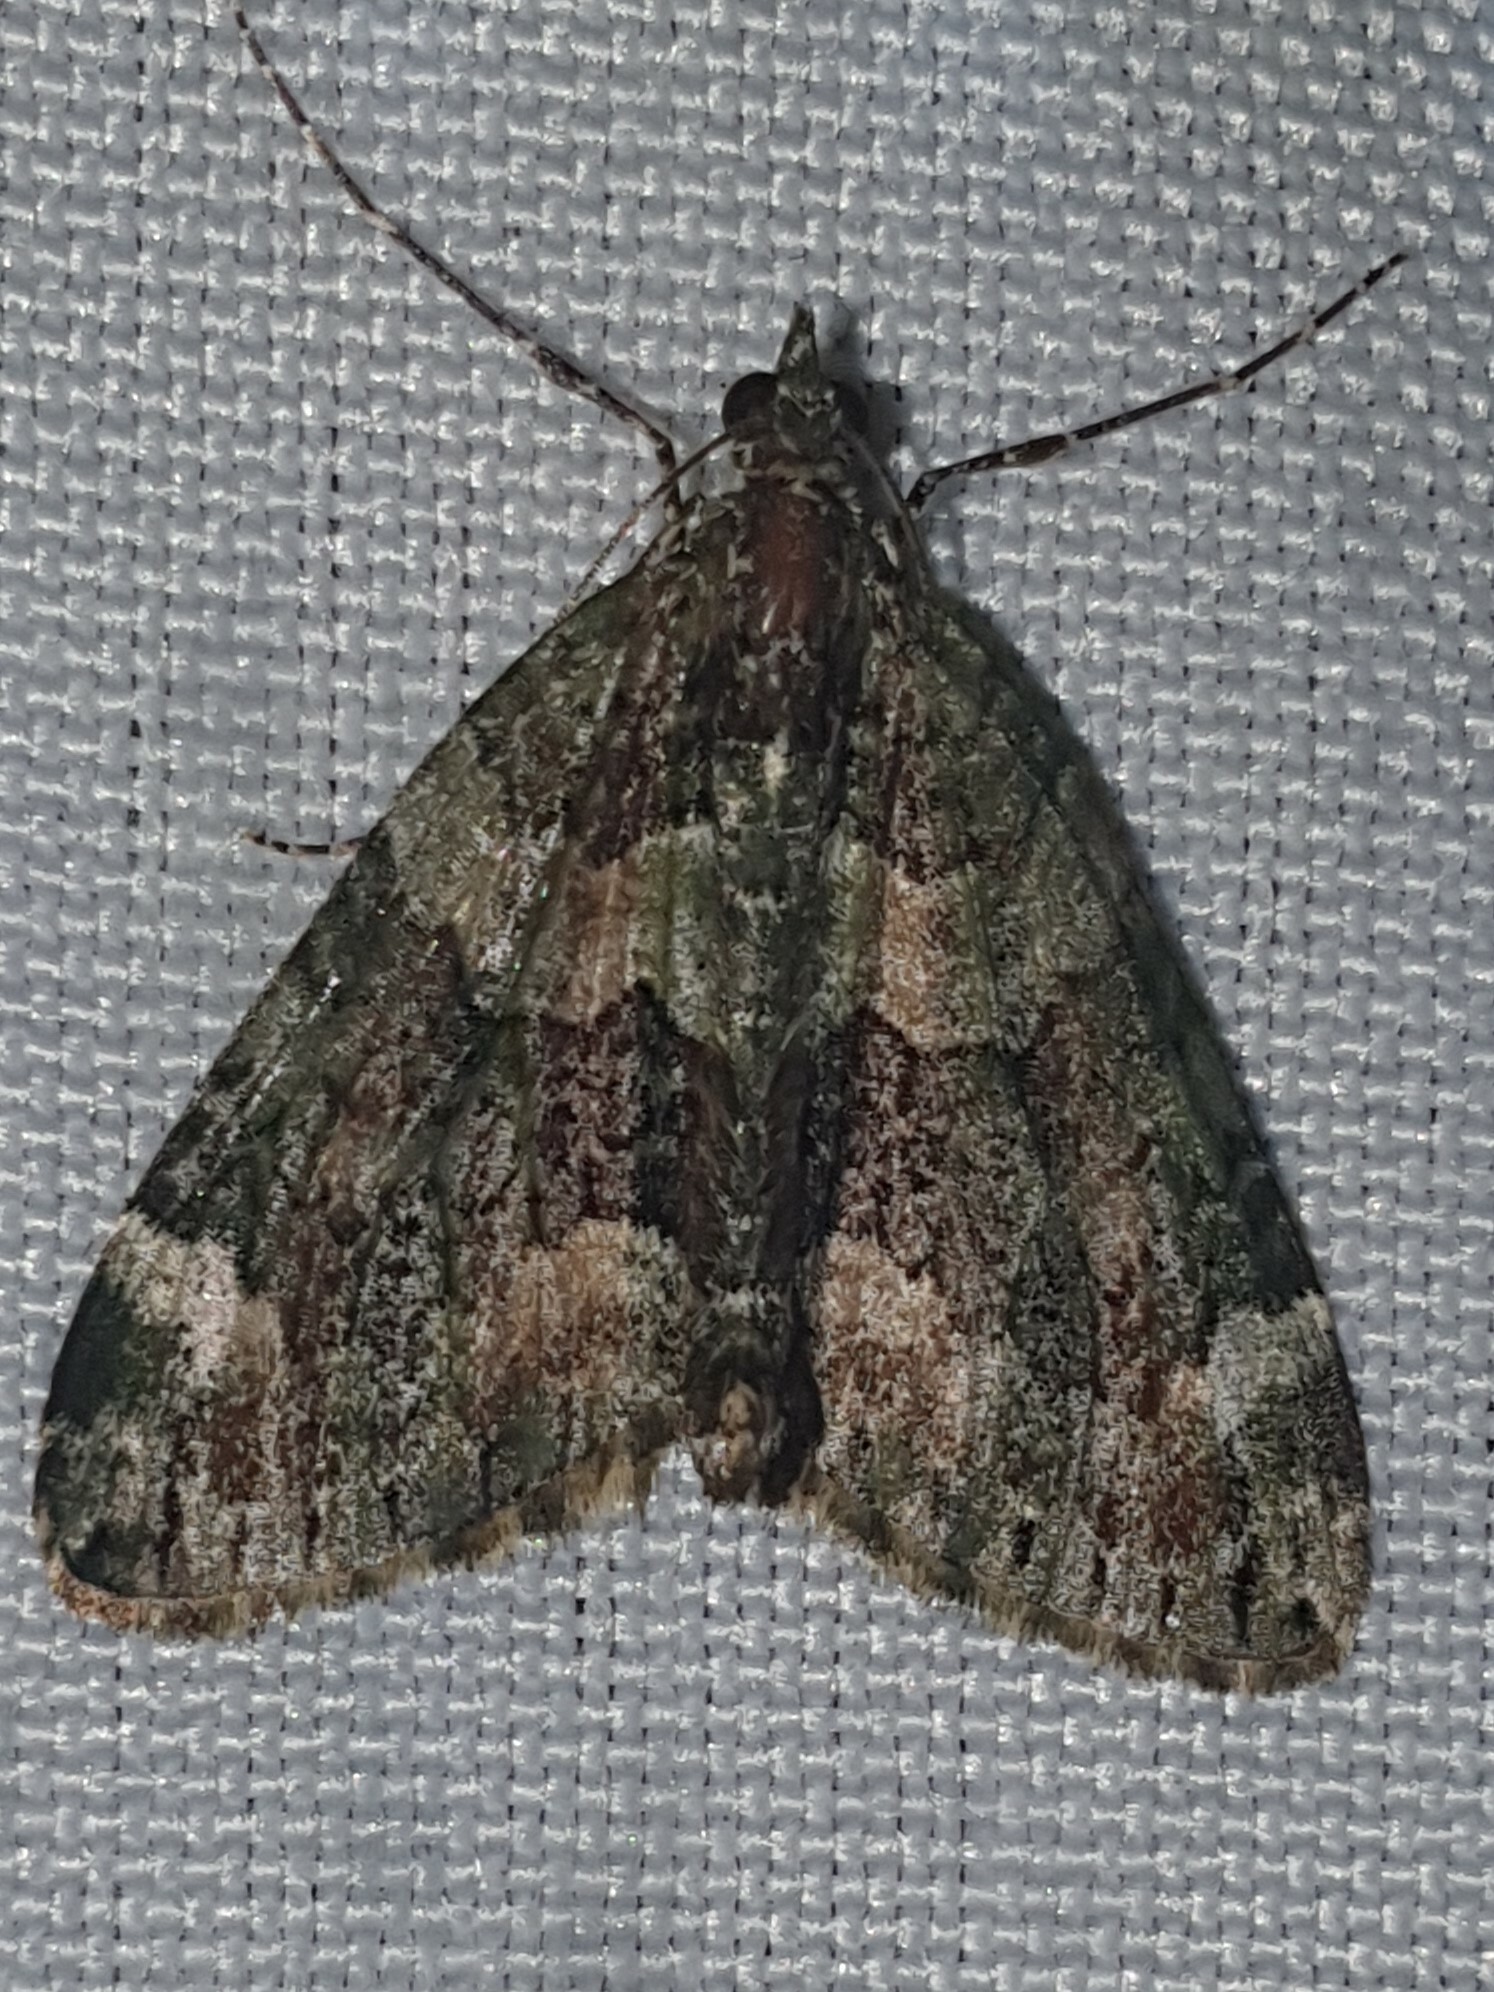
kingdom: Animalia
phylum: Arthropoda
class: Insecta
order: Lepidoptera
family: Geometridae
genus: Chloroclysta
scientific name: Chloroclysta siterata
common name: Red-green carpet
